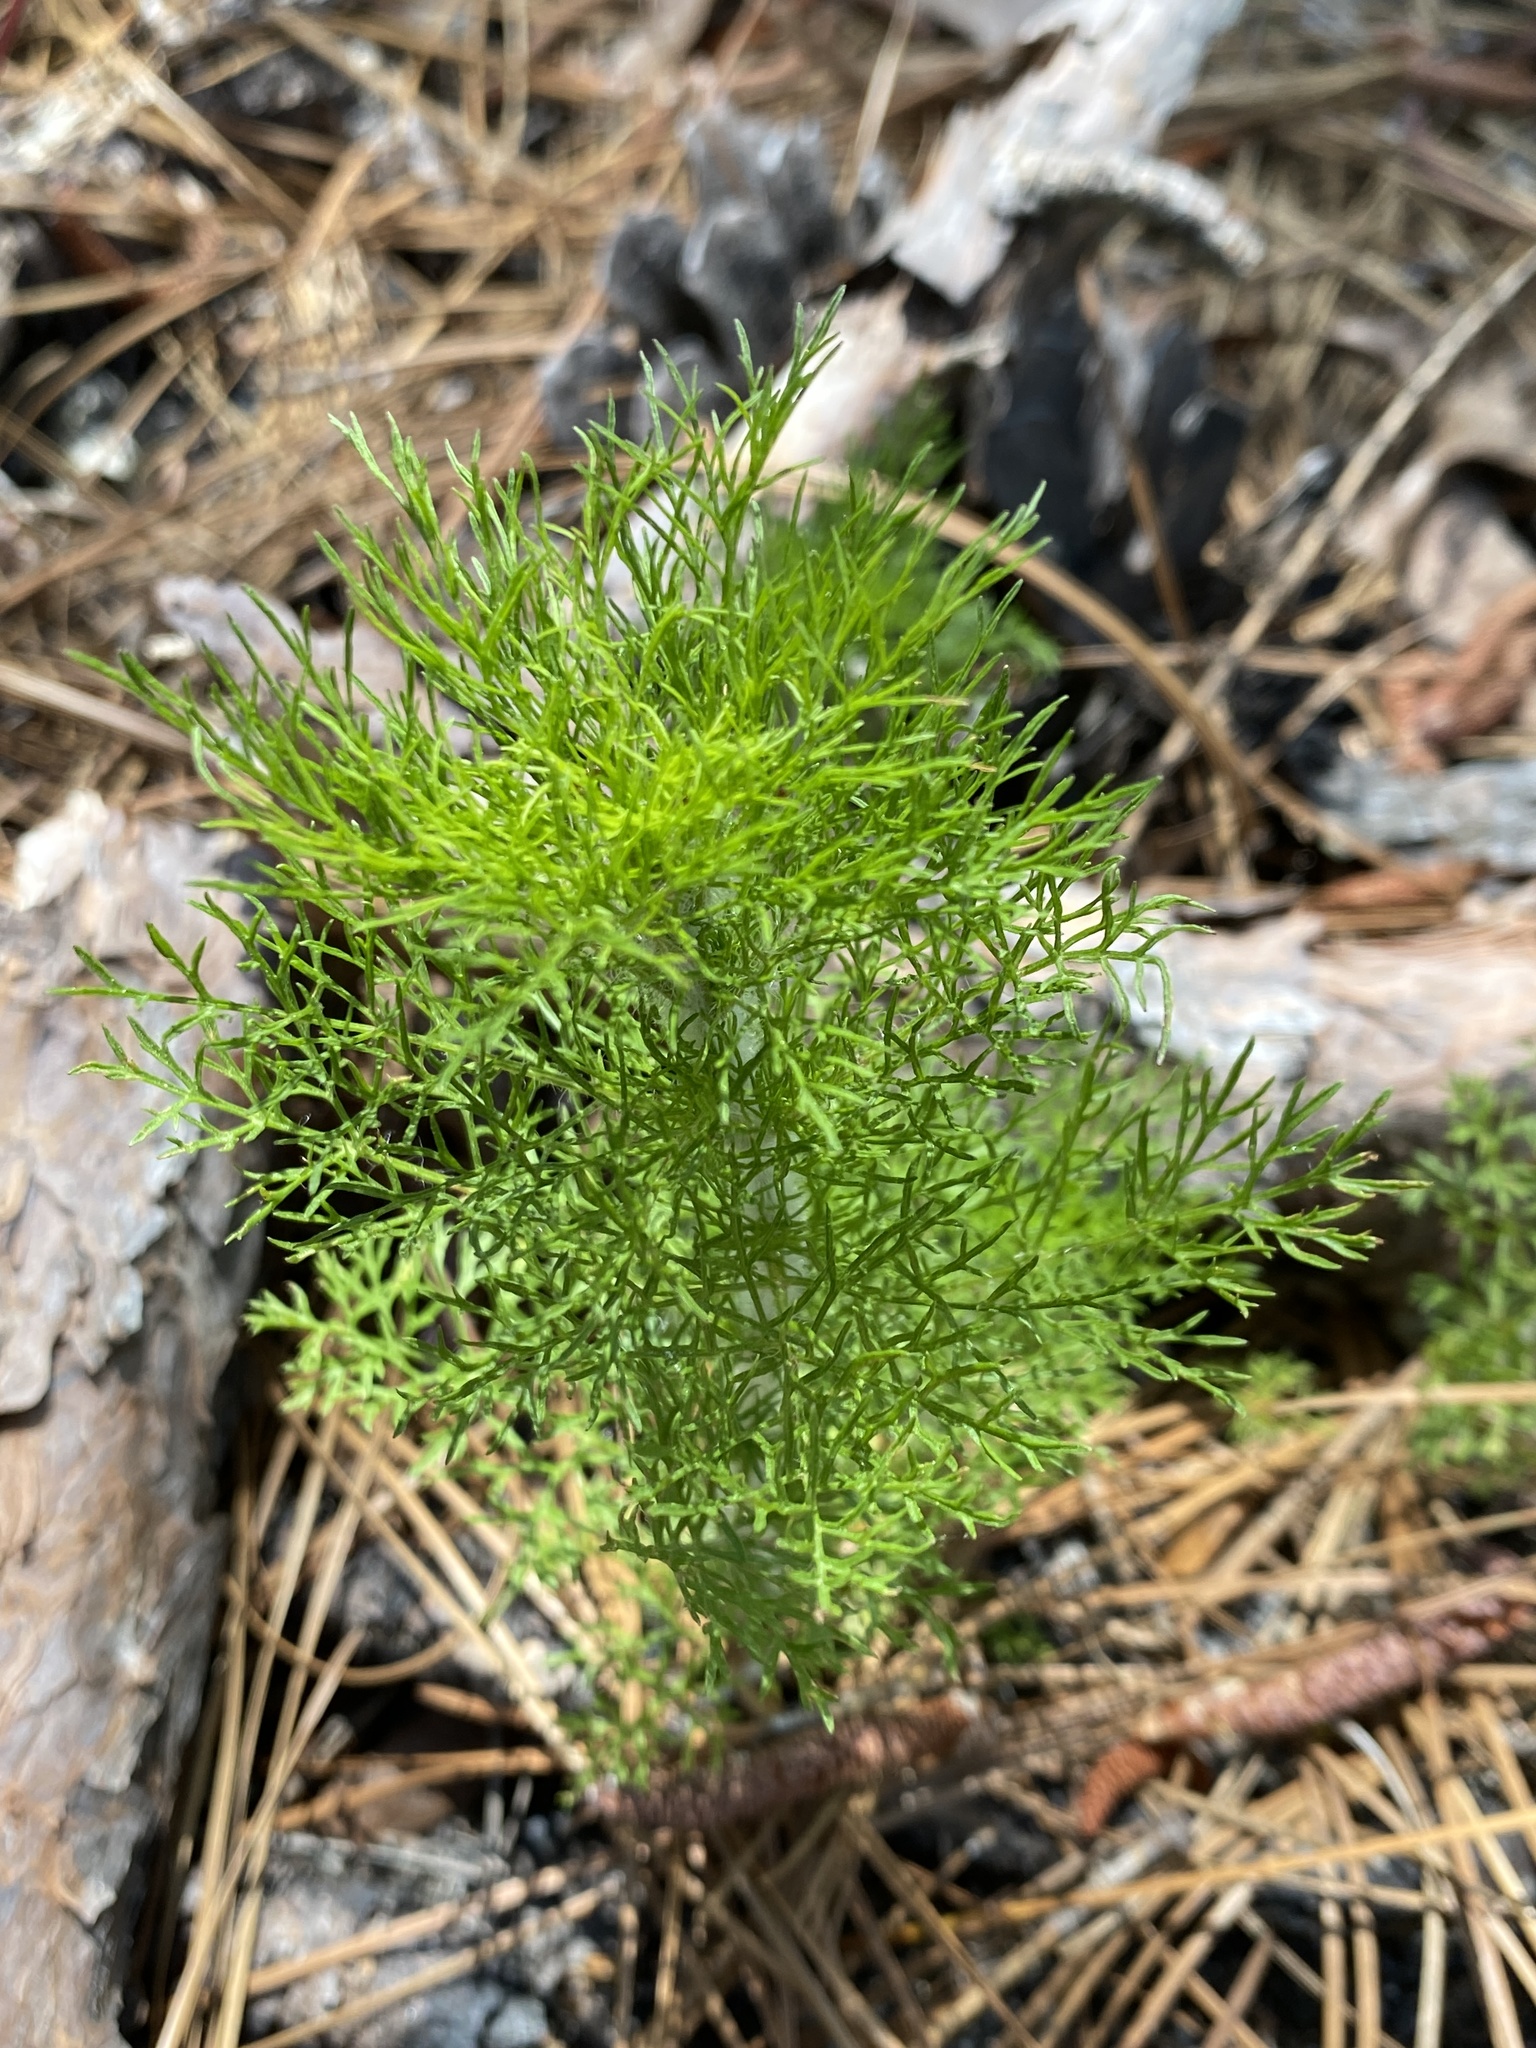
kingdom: Plantae
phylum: Tracheophyta
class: Magnoliopsida
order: Asterales
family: Asteraceae
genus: Eupatorium
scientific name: Eupatorium compositifolium
